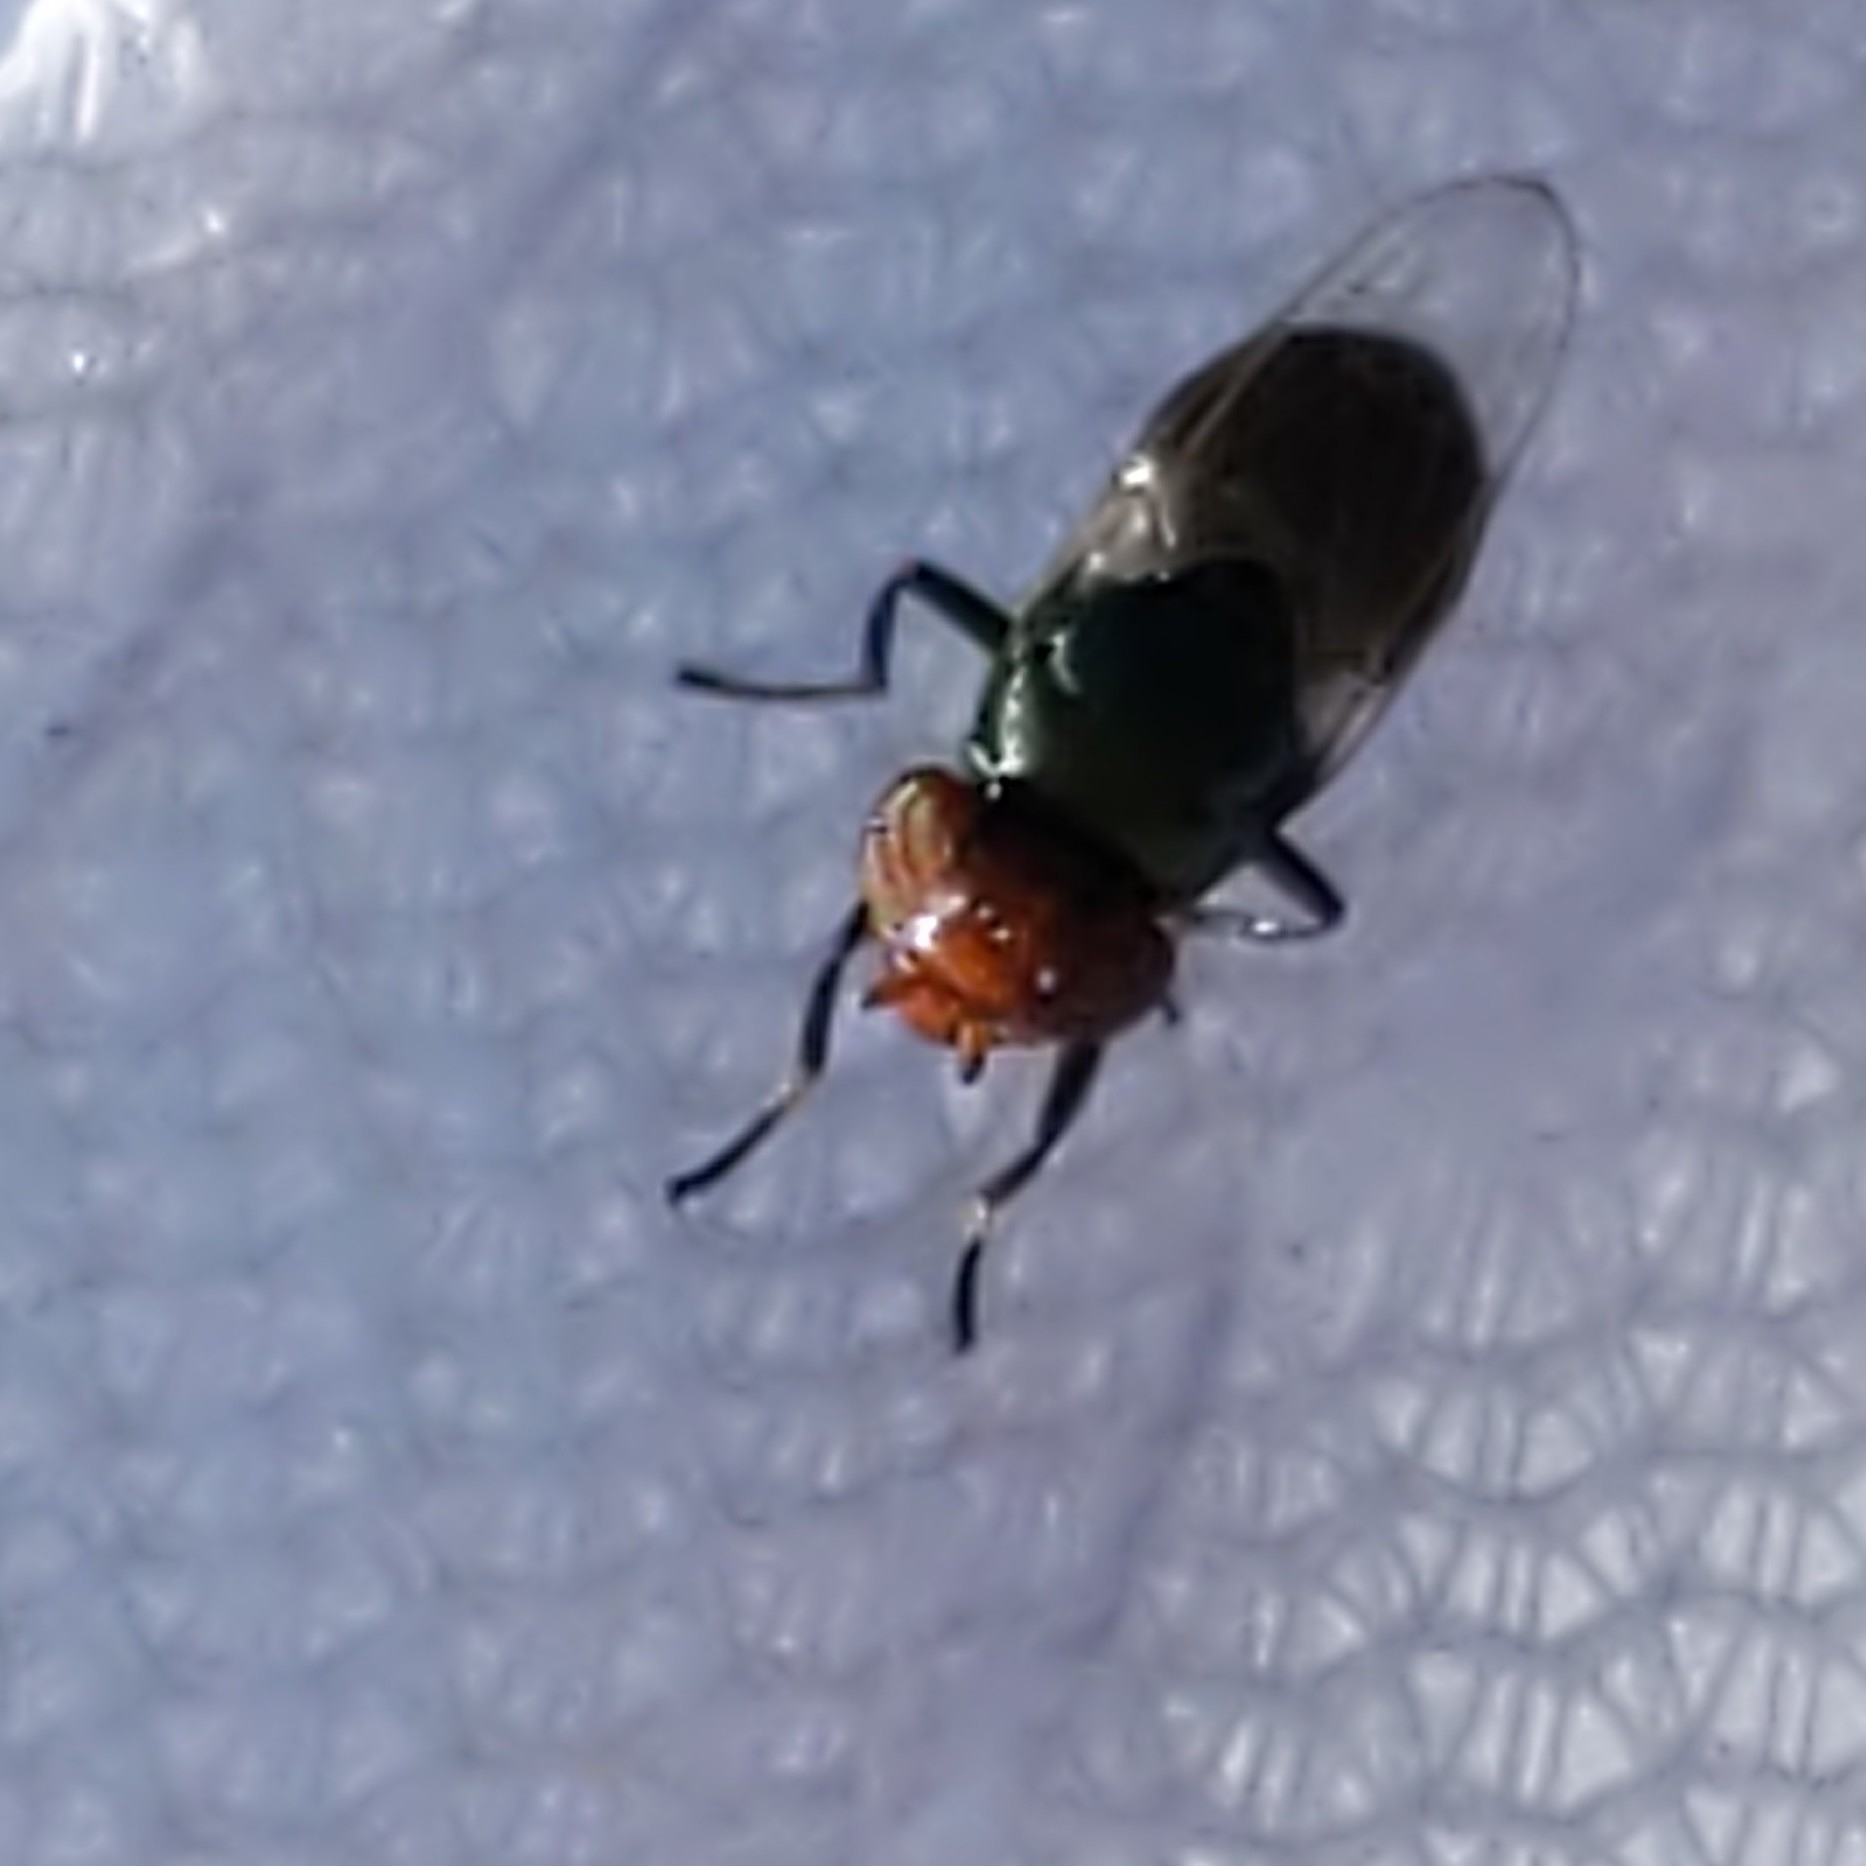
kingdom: Animalia
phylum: Arthropoda
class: Insecta
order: Diptera
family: Ulidiidae
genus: Physiphora
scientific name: Physiphora alceae
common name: Picture-winged fly
